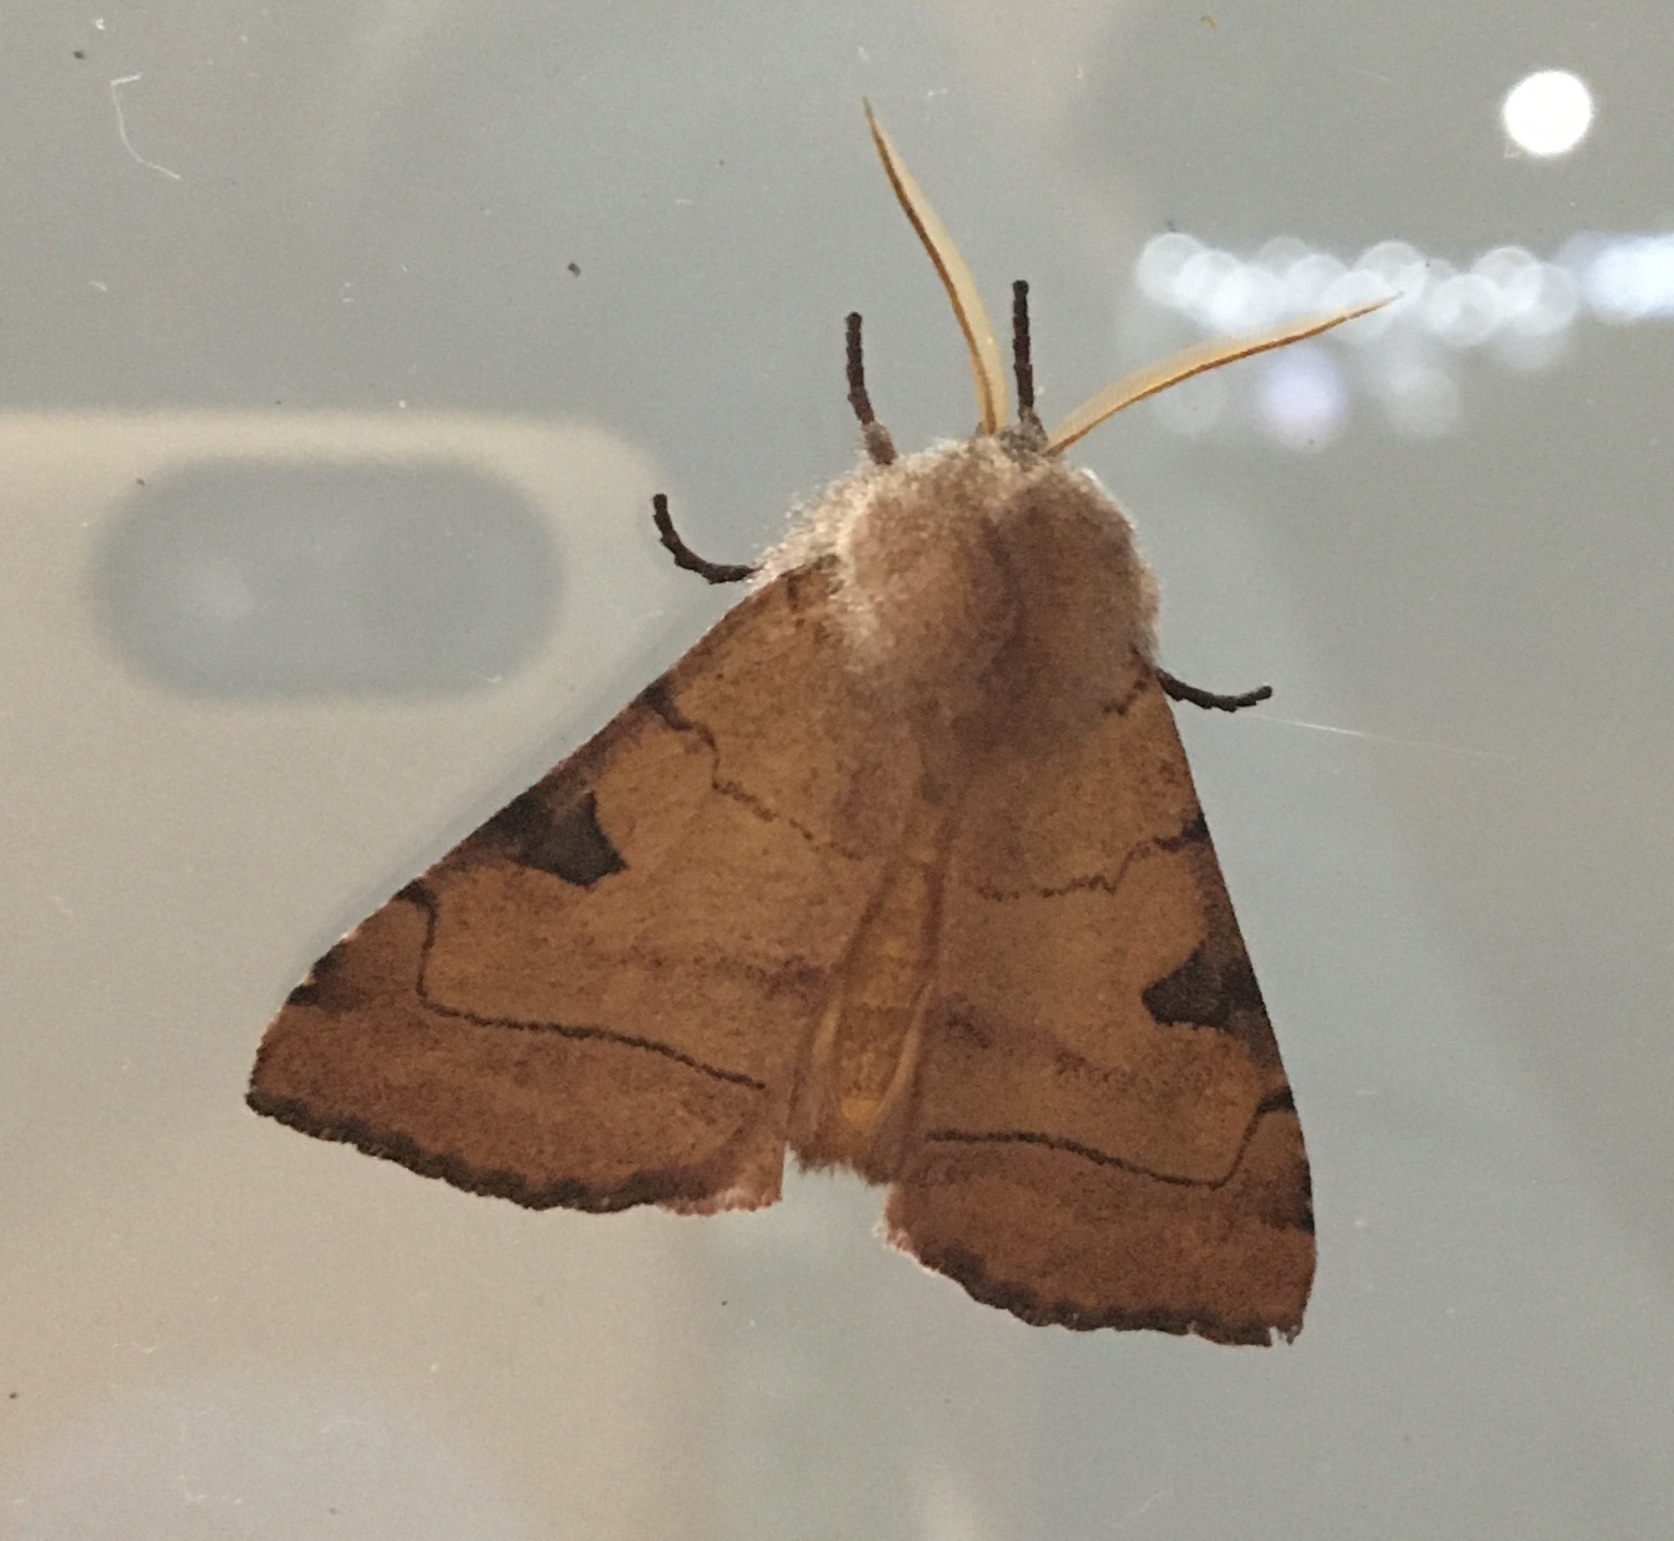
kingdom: Animalia
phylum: Arthropoda
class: Insecta
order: Lepidoptera
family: Noctuidae
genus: Choephora
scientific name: Choephora fungorum
